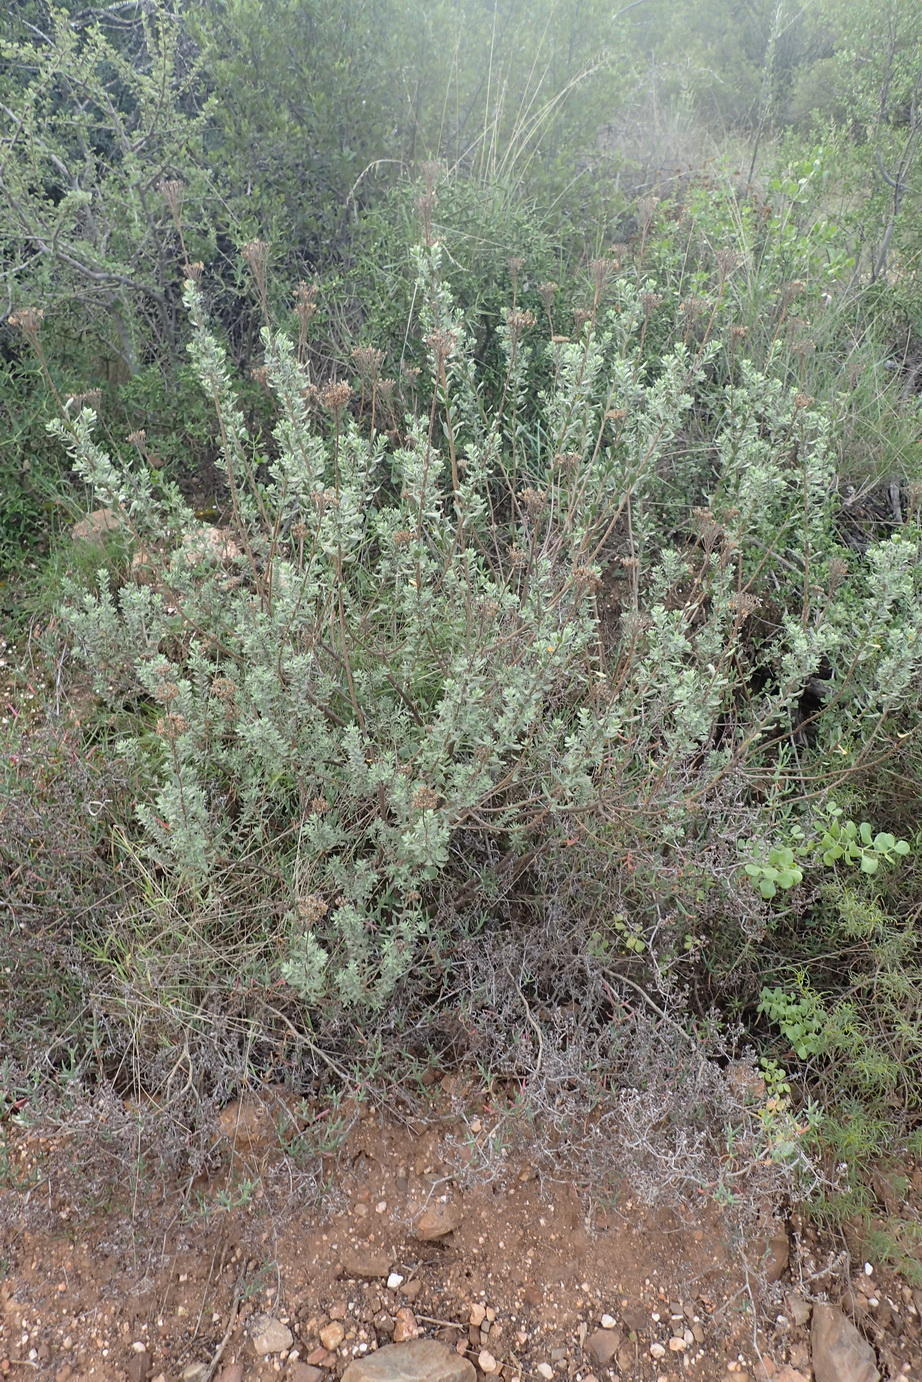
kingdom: Plantae
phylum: Tracheophyta
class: Magnoliopsida
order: Asterales
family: Asteraceae
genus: Athanasia
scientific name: Athanasia trifurcata
